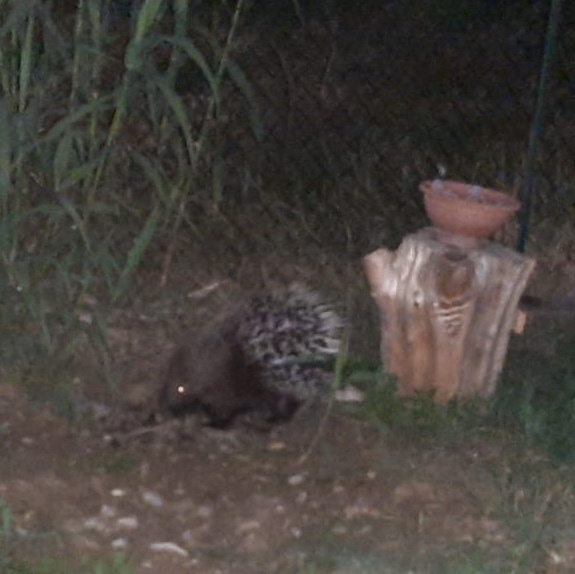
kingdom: Animalia
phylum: Chordata
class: Mammalia
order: Rodentia
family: Hystricidae
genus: Hystrix
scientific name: Hystrix cristata
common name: Crested porcupine
